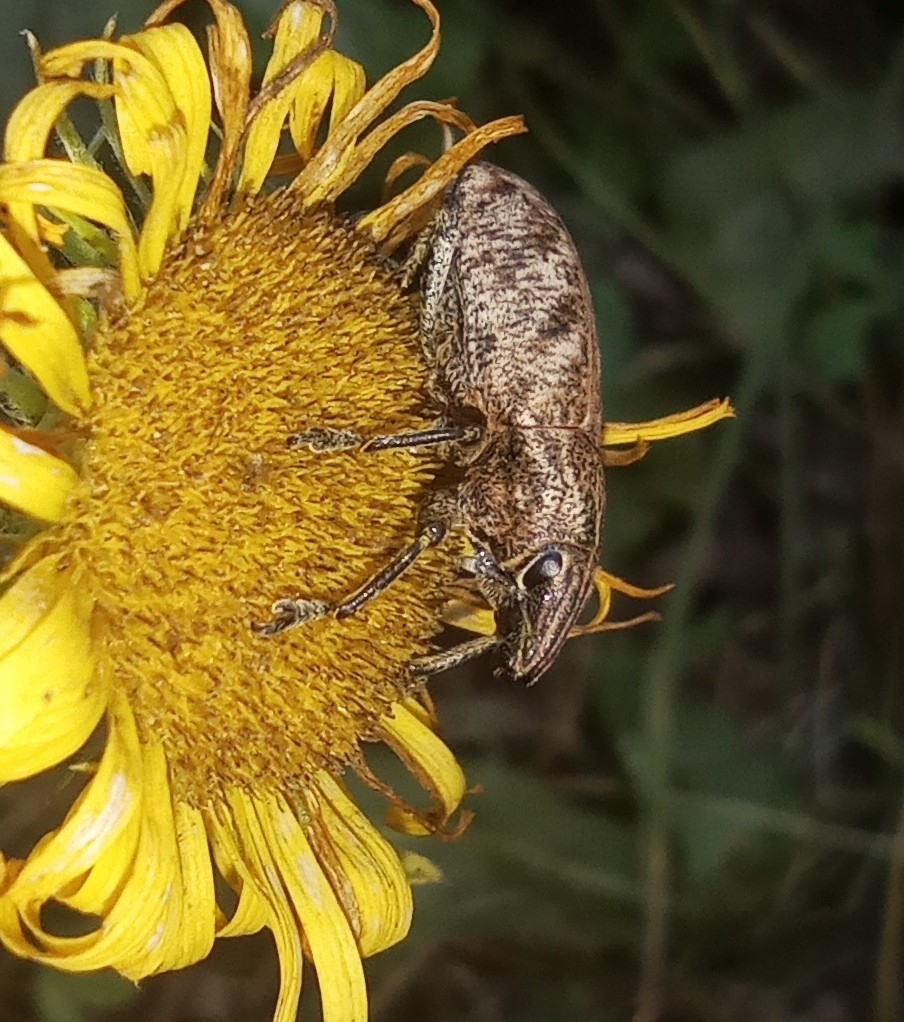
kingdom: Animalia
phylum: Arthropoda
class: Insecta
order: Coleoptera
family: Curculionidae
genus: Cleonis
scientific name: Cleonis pigra
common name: Large thistle weevil
